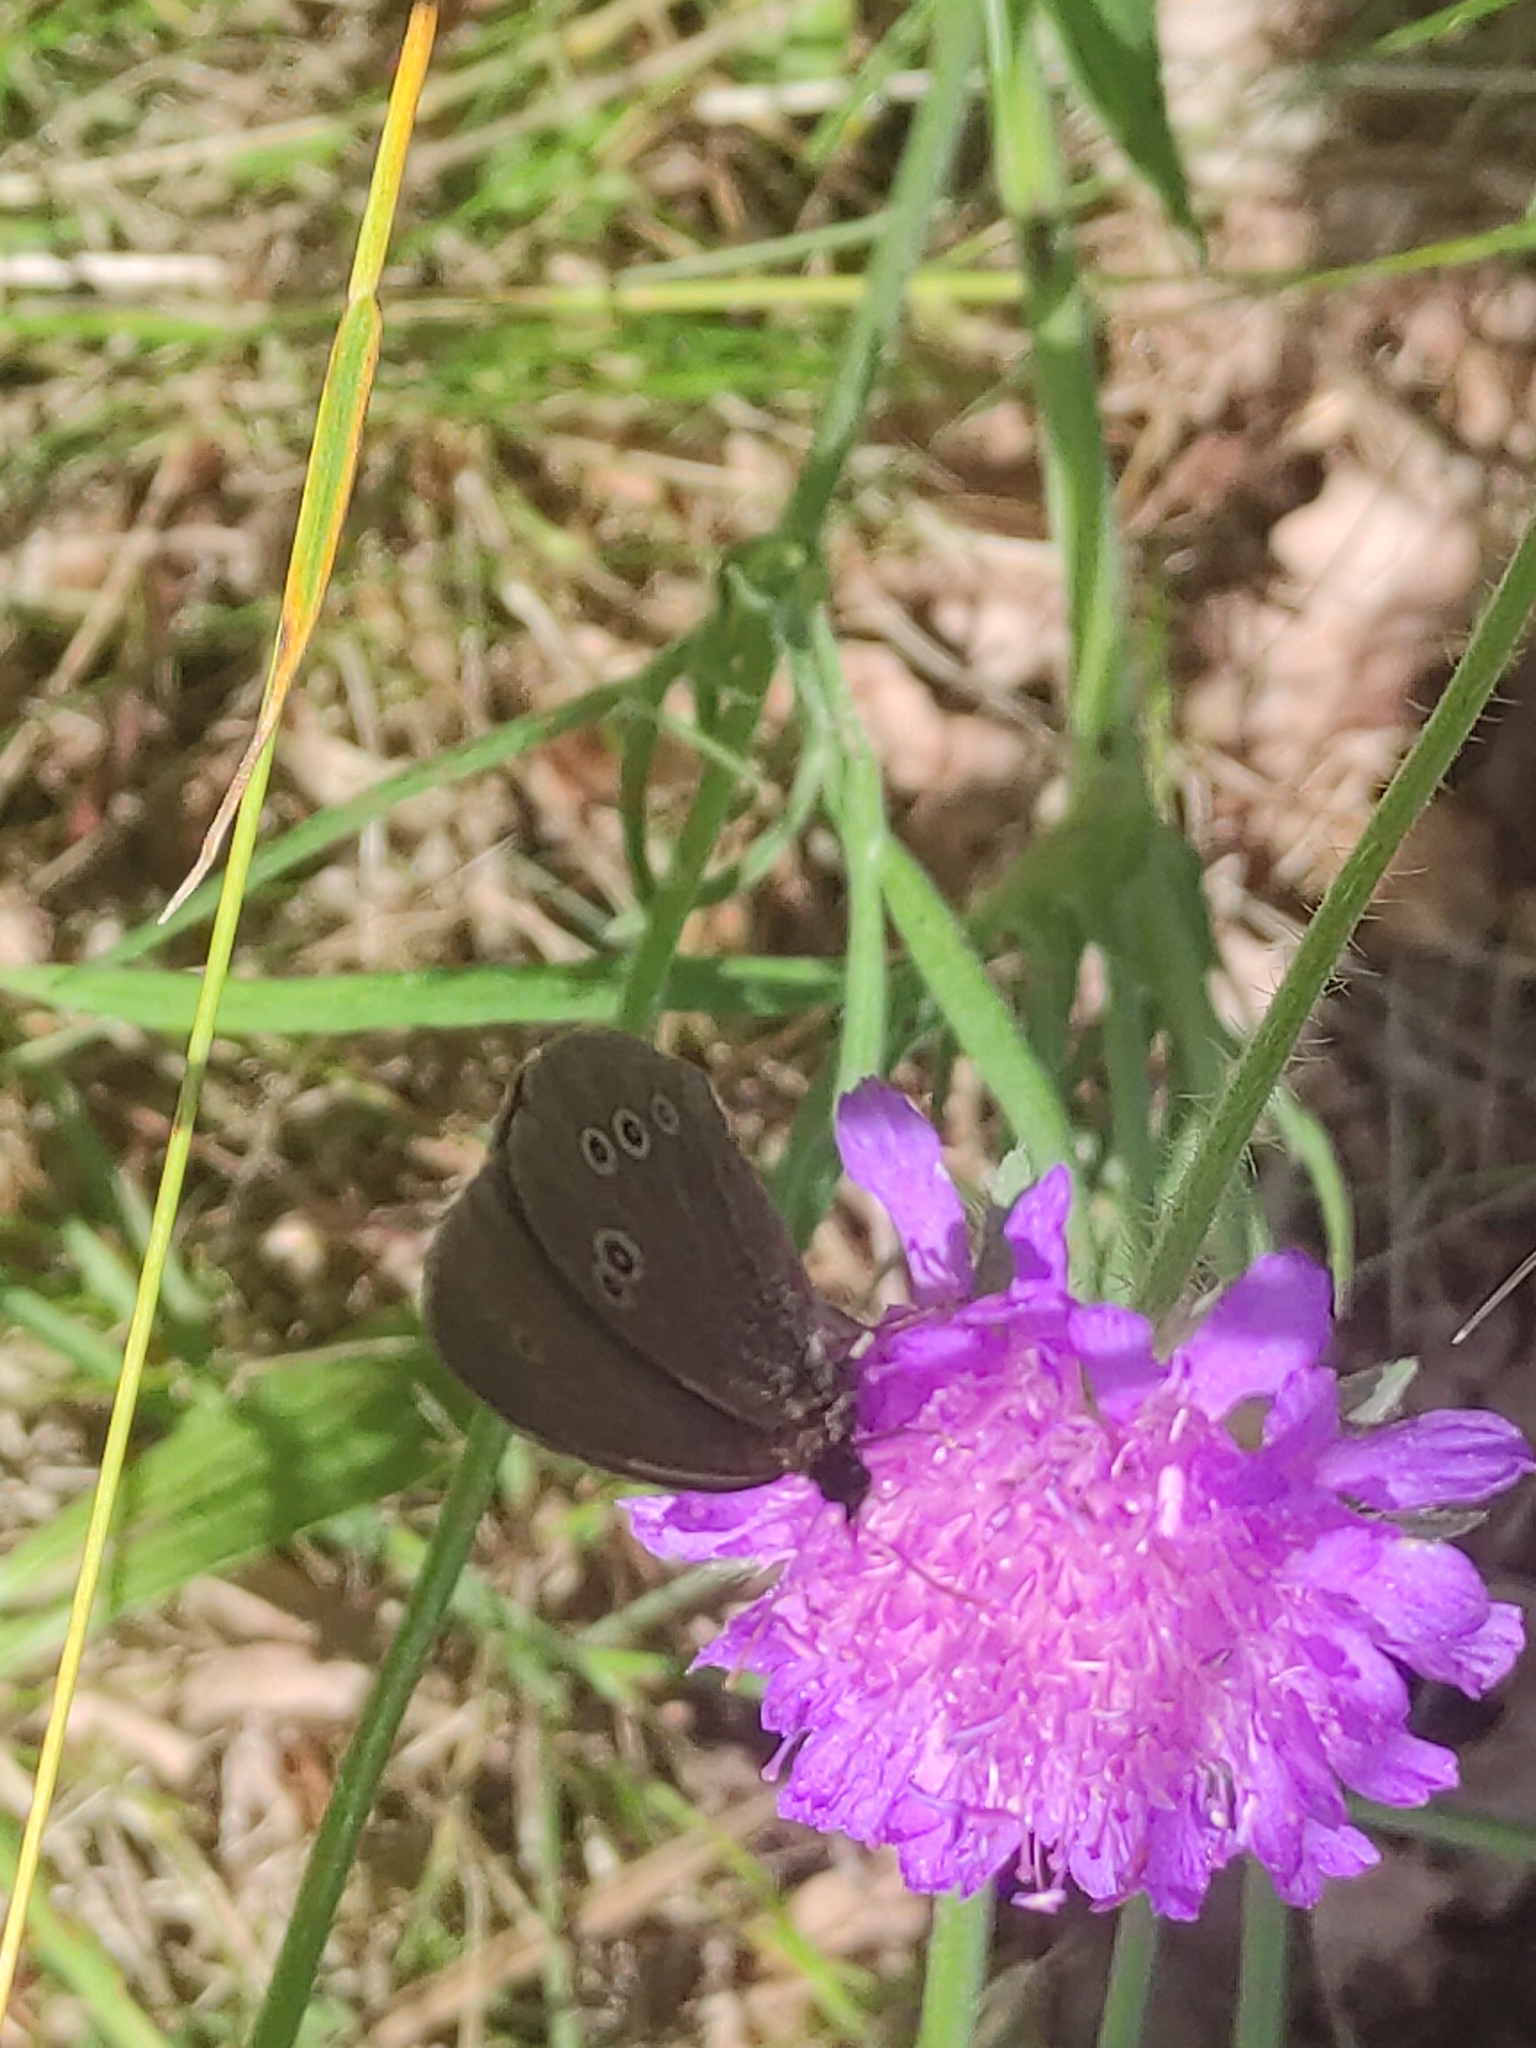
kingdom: Animalia
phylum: Arthropoda
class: Insecta
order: Lepidoptera
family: Nymphalidae
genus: Aphantopus
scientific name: Aphantopus hyperantus
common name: Ringlet
